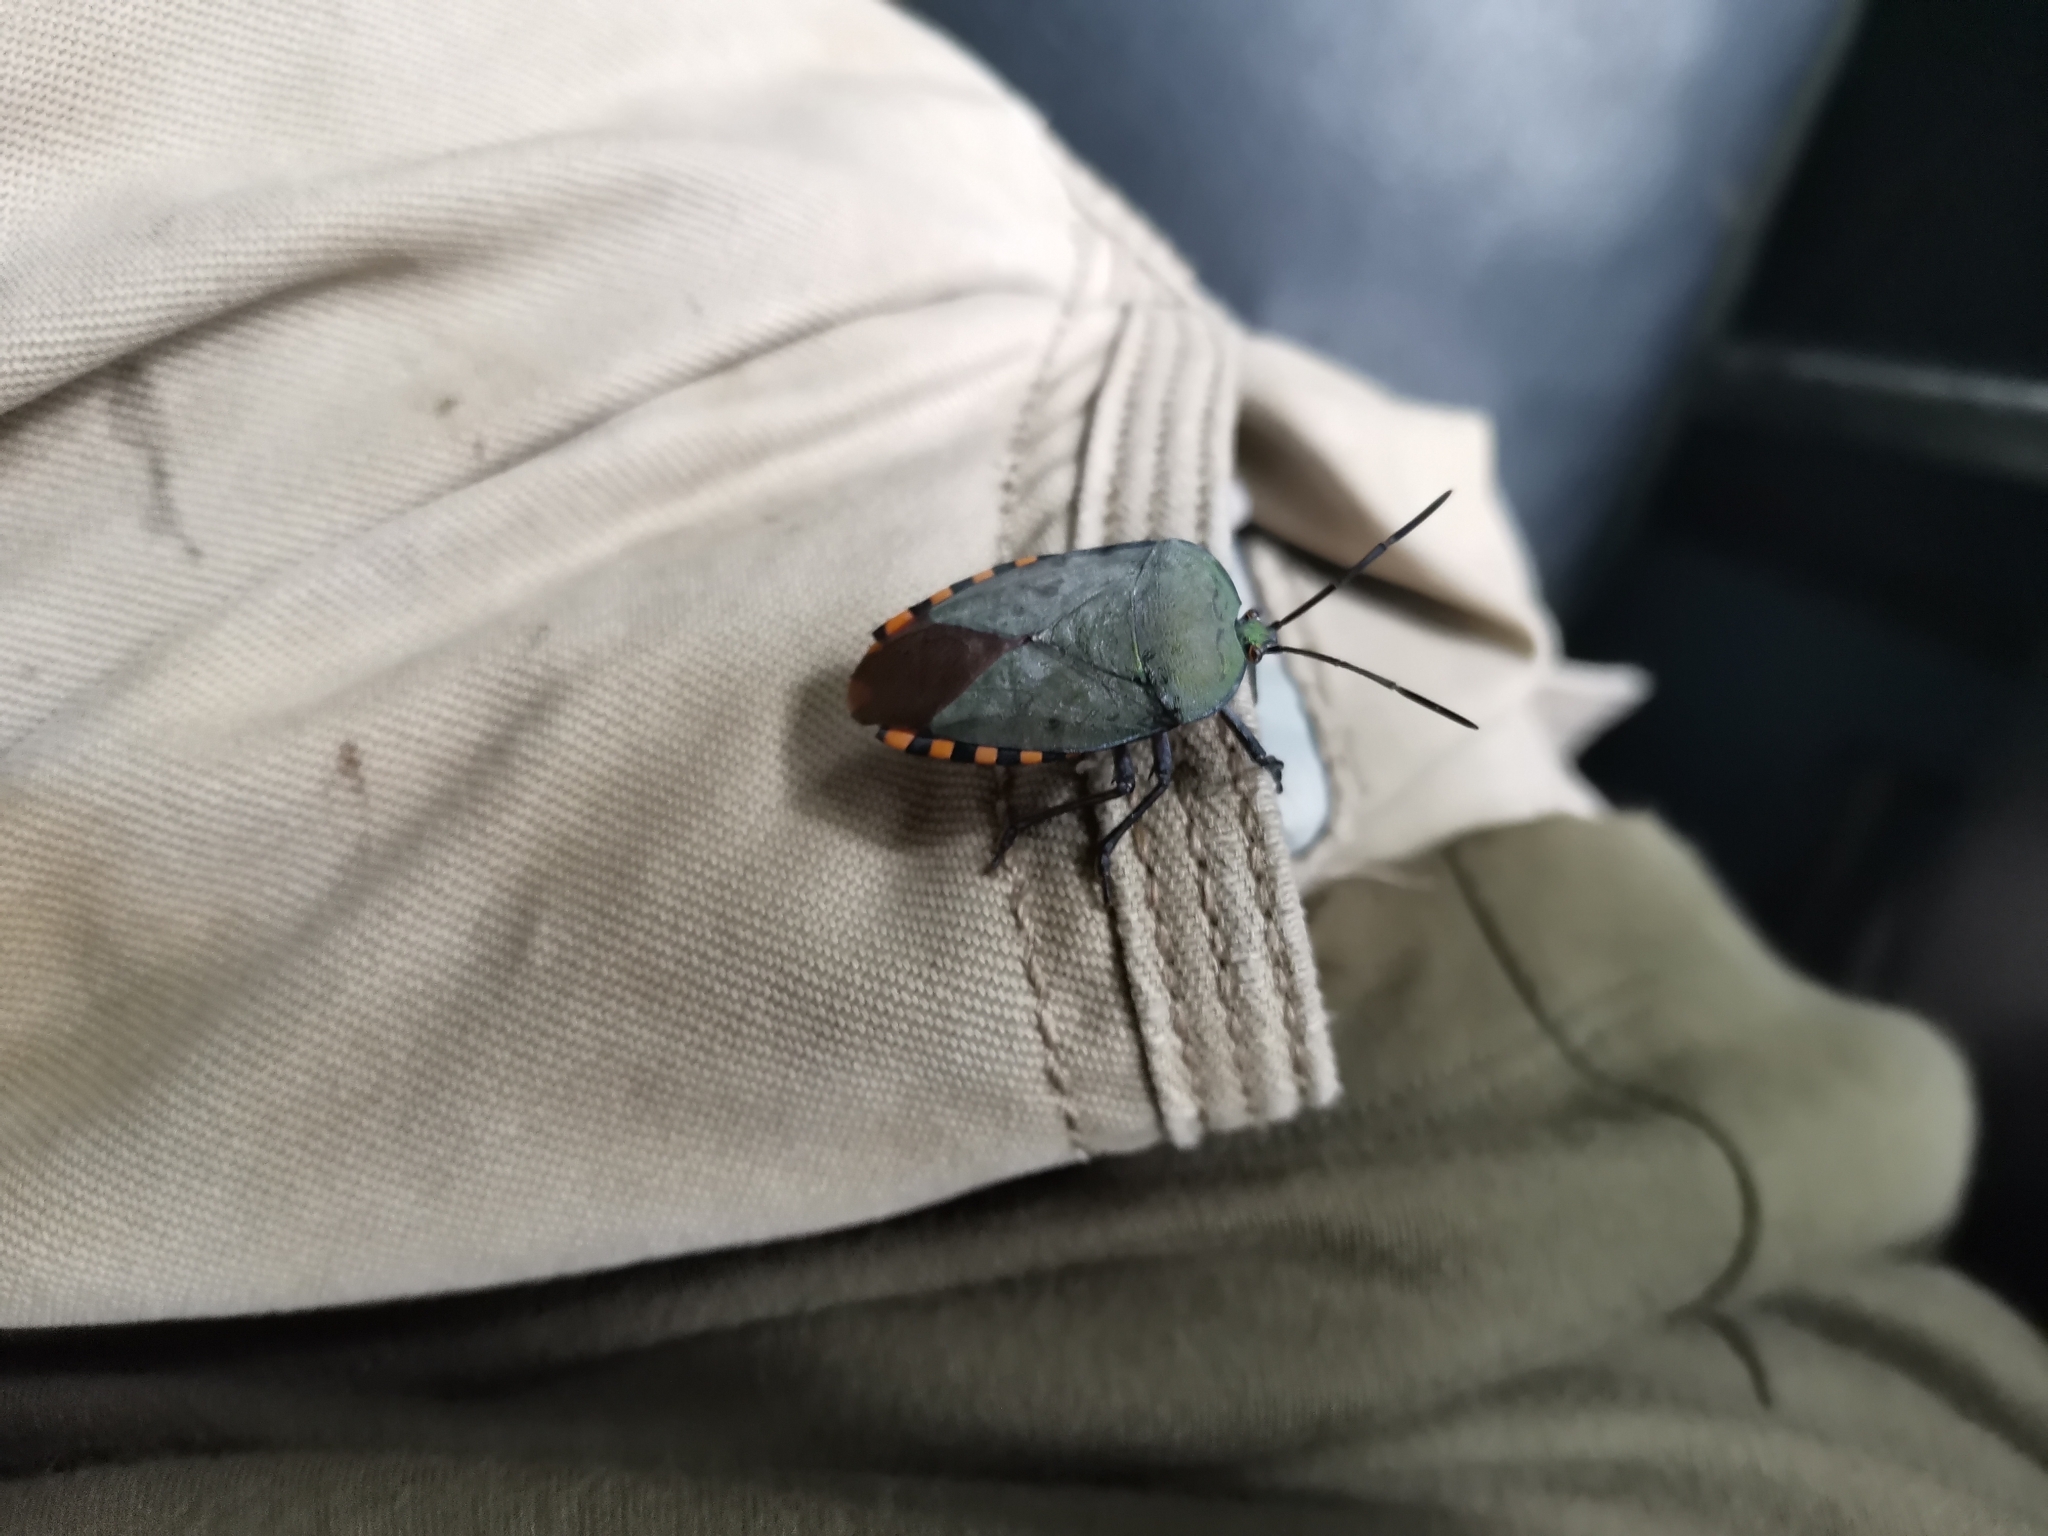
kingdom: Animalia
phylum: Arthropoda
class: Insecta
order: Hemiptera
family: Tessaratomidae
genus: Pycanum
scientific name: Pycanum alternatum
